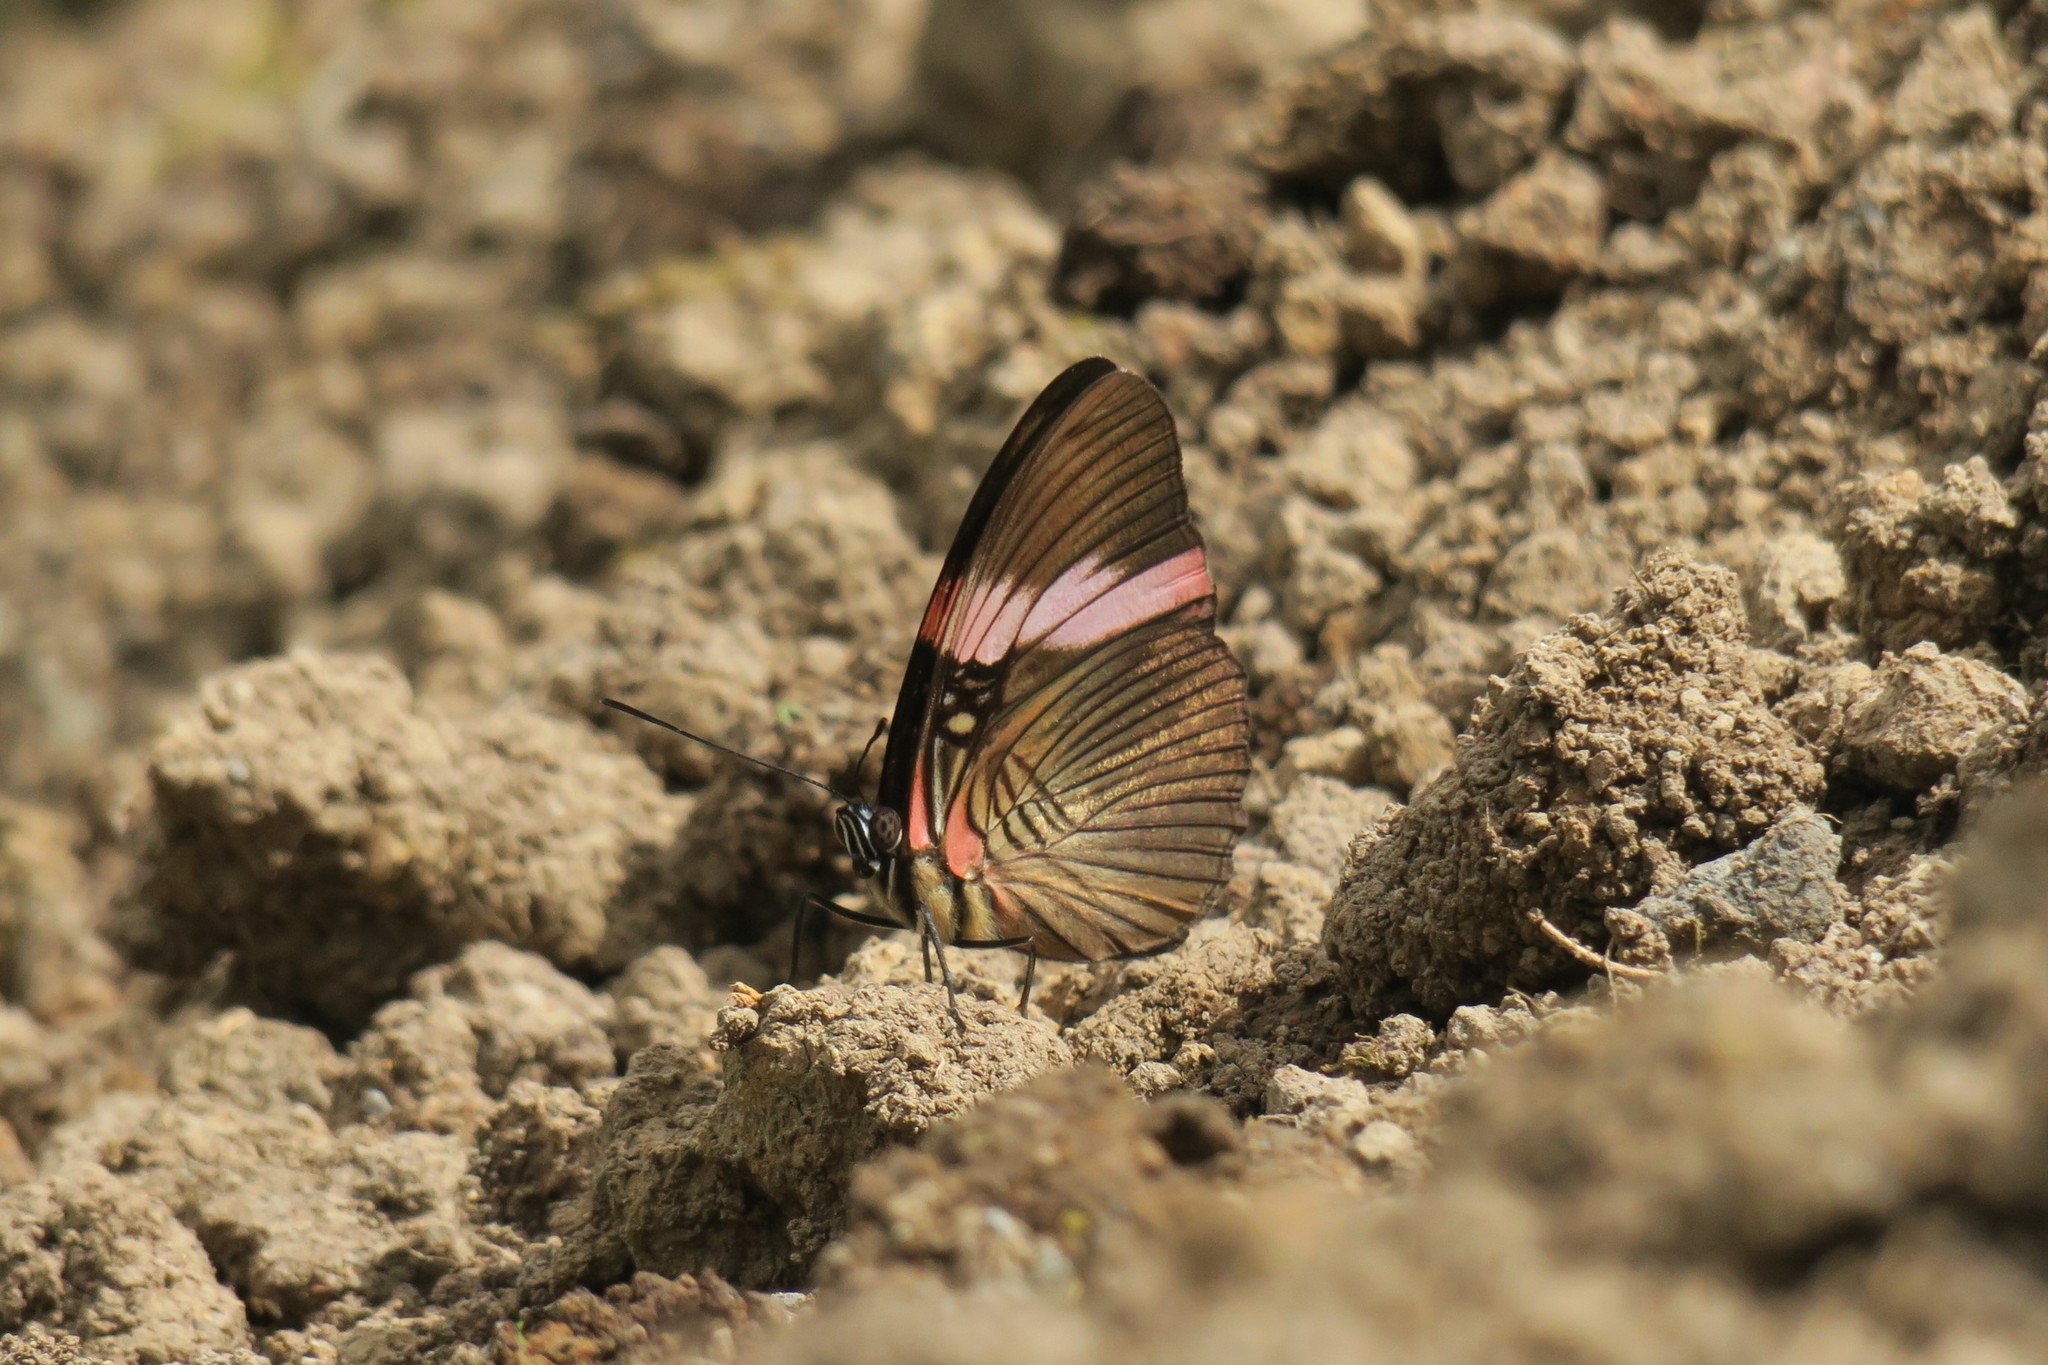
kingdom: Animalia
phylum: Arthropoda
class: Insecta
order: Lepidoptera
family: Nymphalidae
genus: Limenitis
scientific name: Limenitis isis
